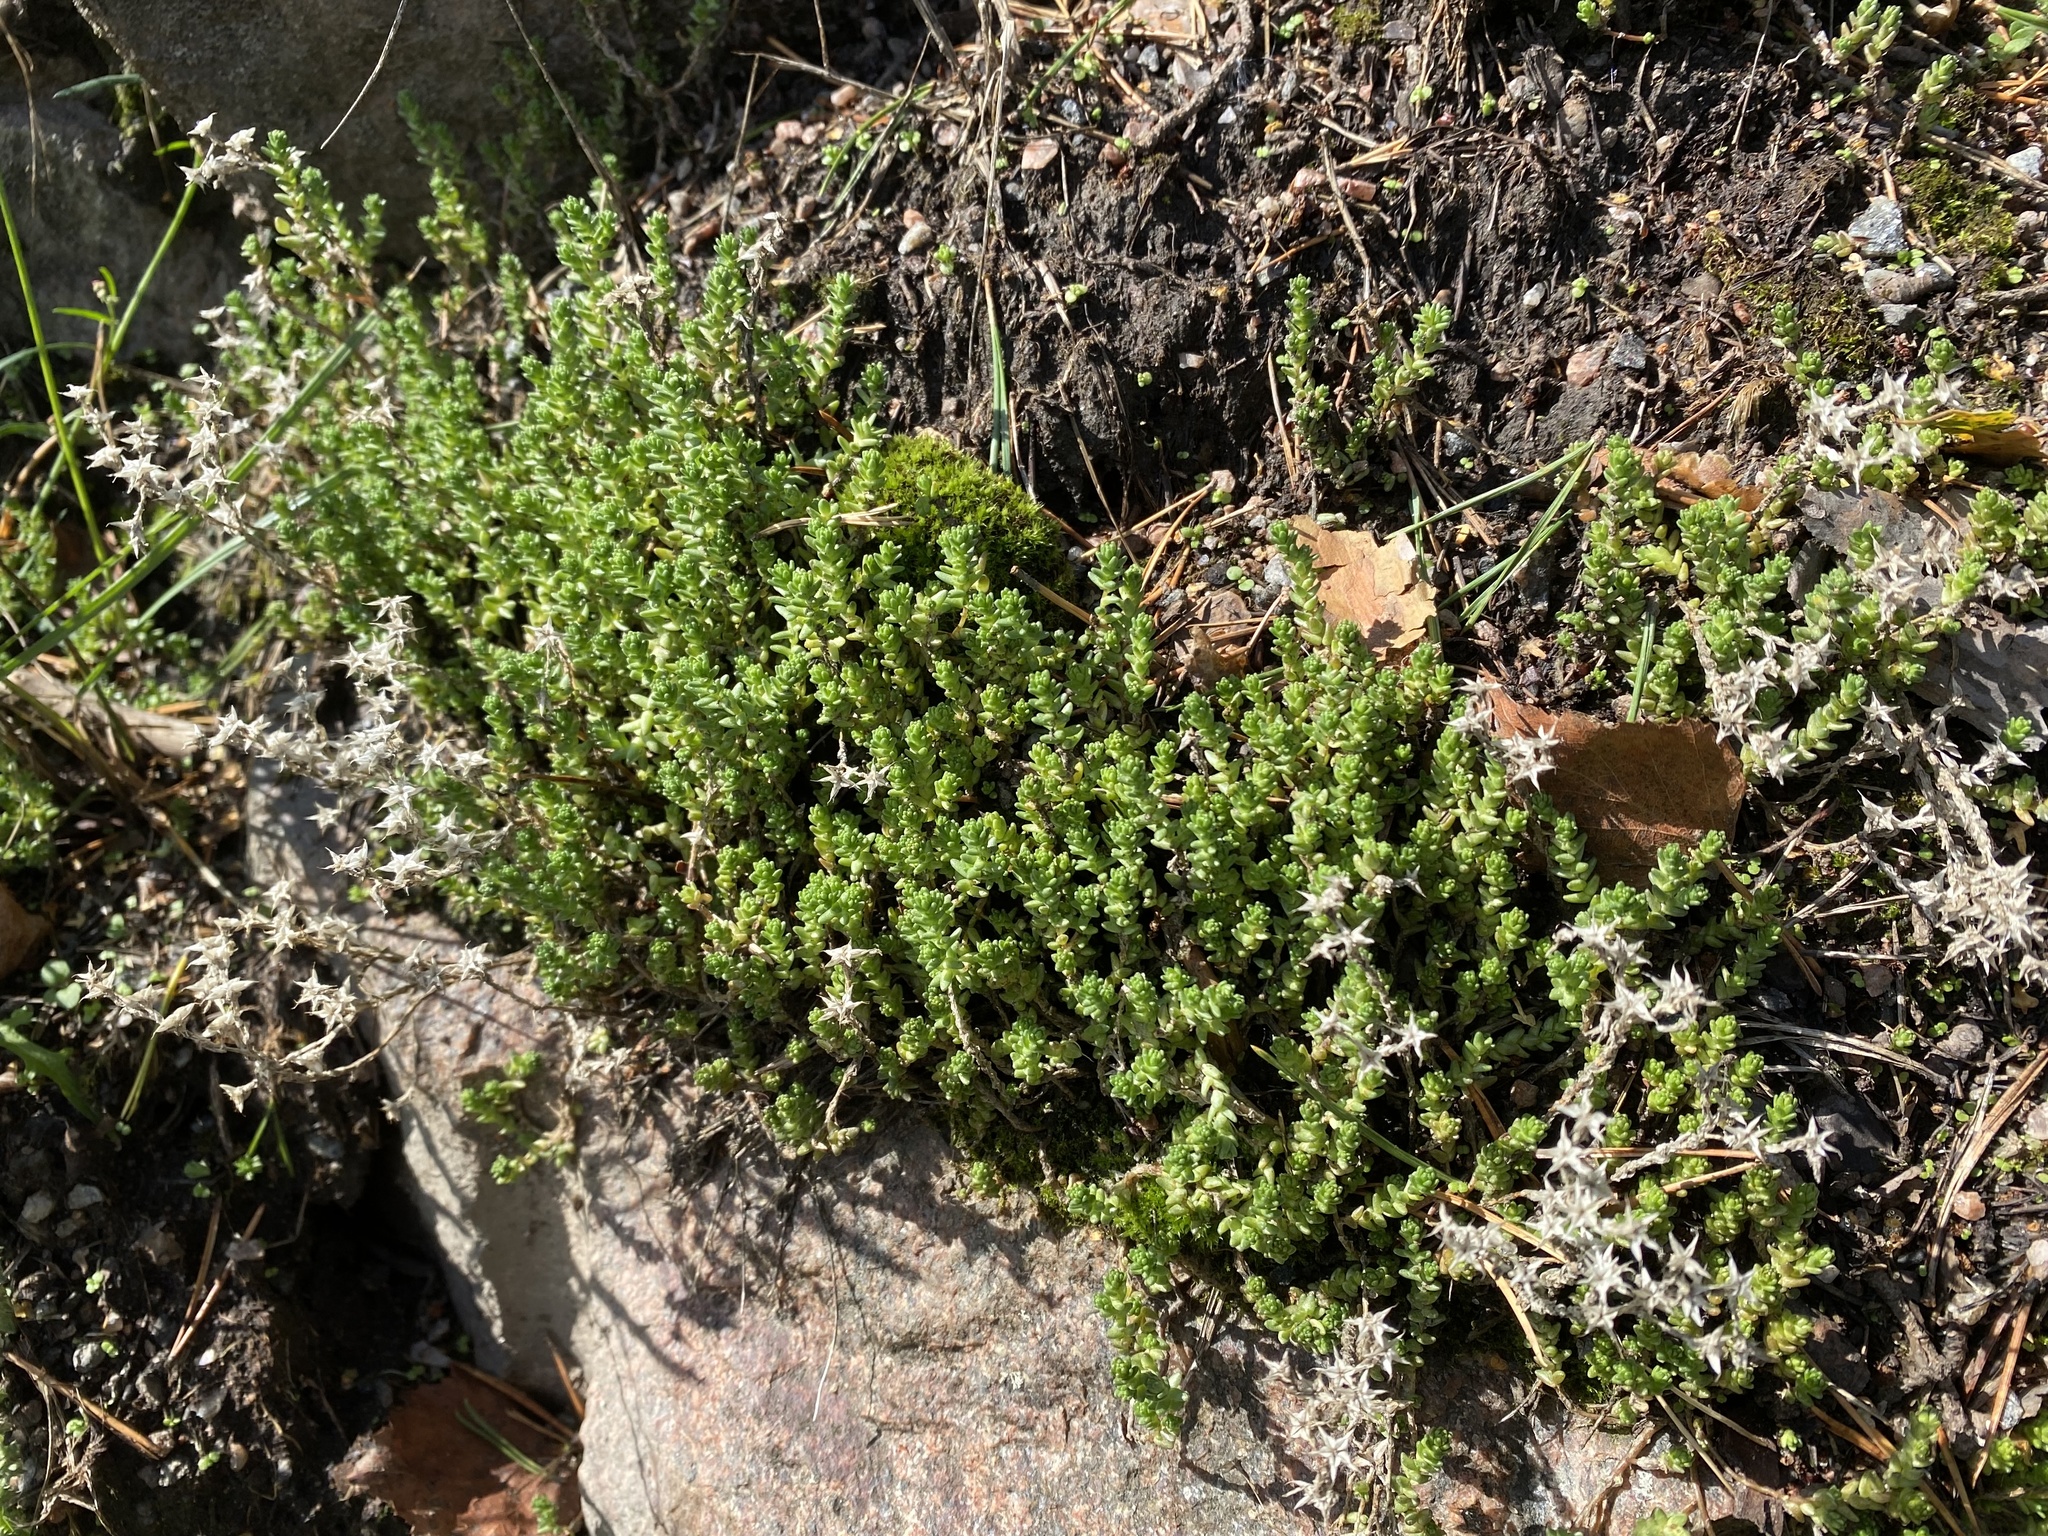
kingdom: Plantae
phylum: Tracheophyta
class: Magnoliopsida
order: Saxifragales
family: Crassulaceae
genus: Sedum
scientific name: Sedum acre
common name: Biting stonecrop
